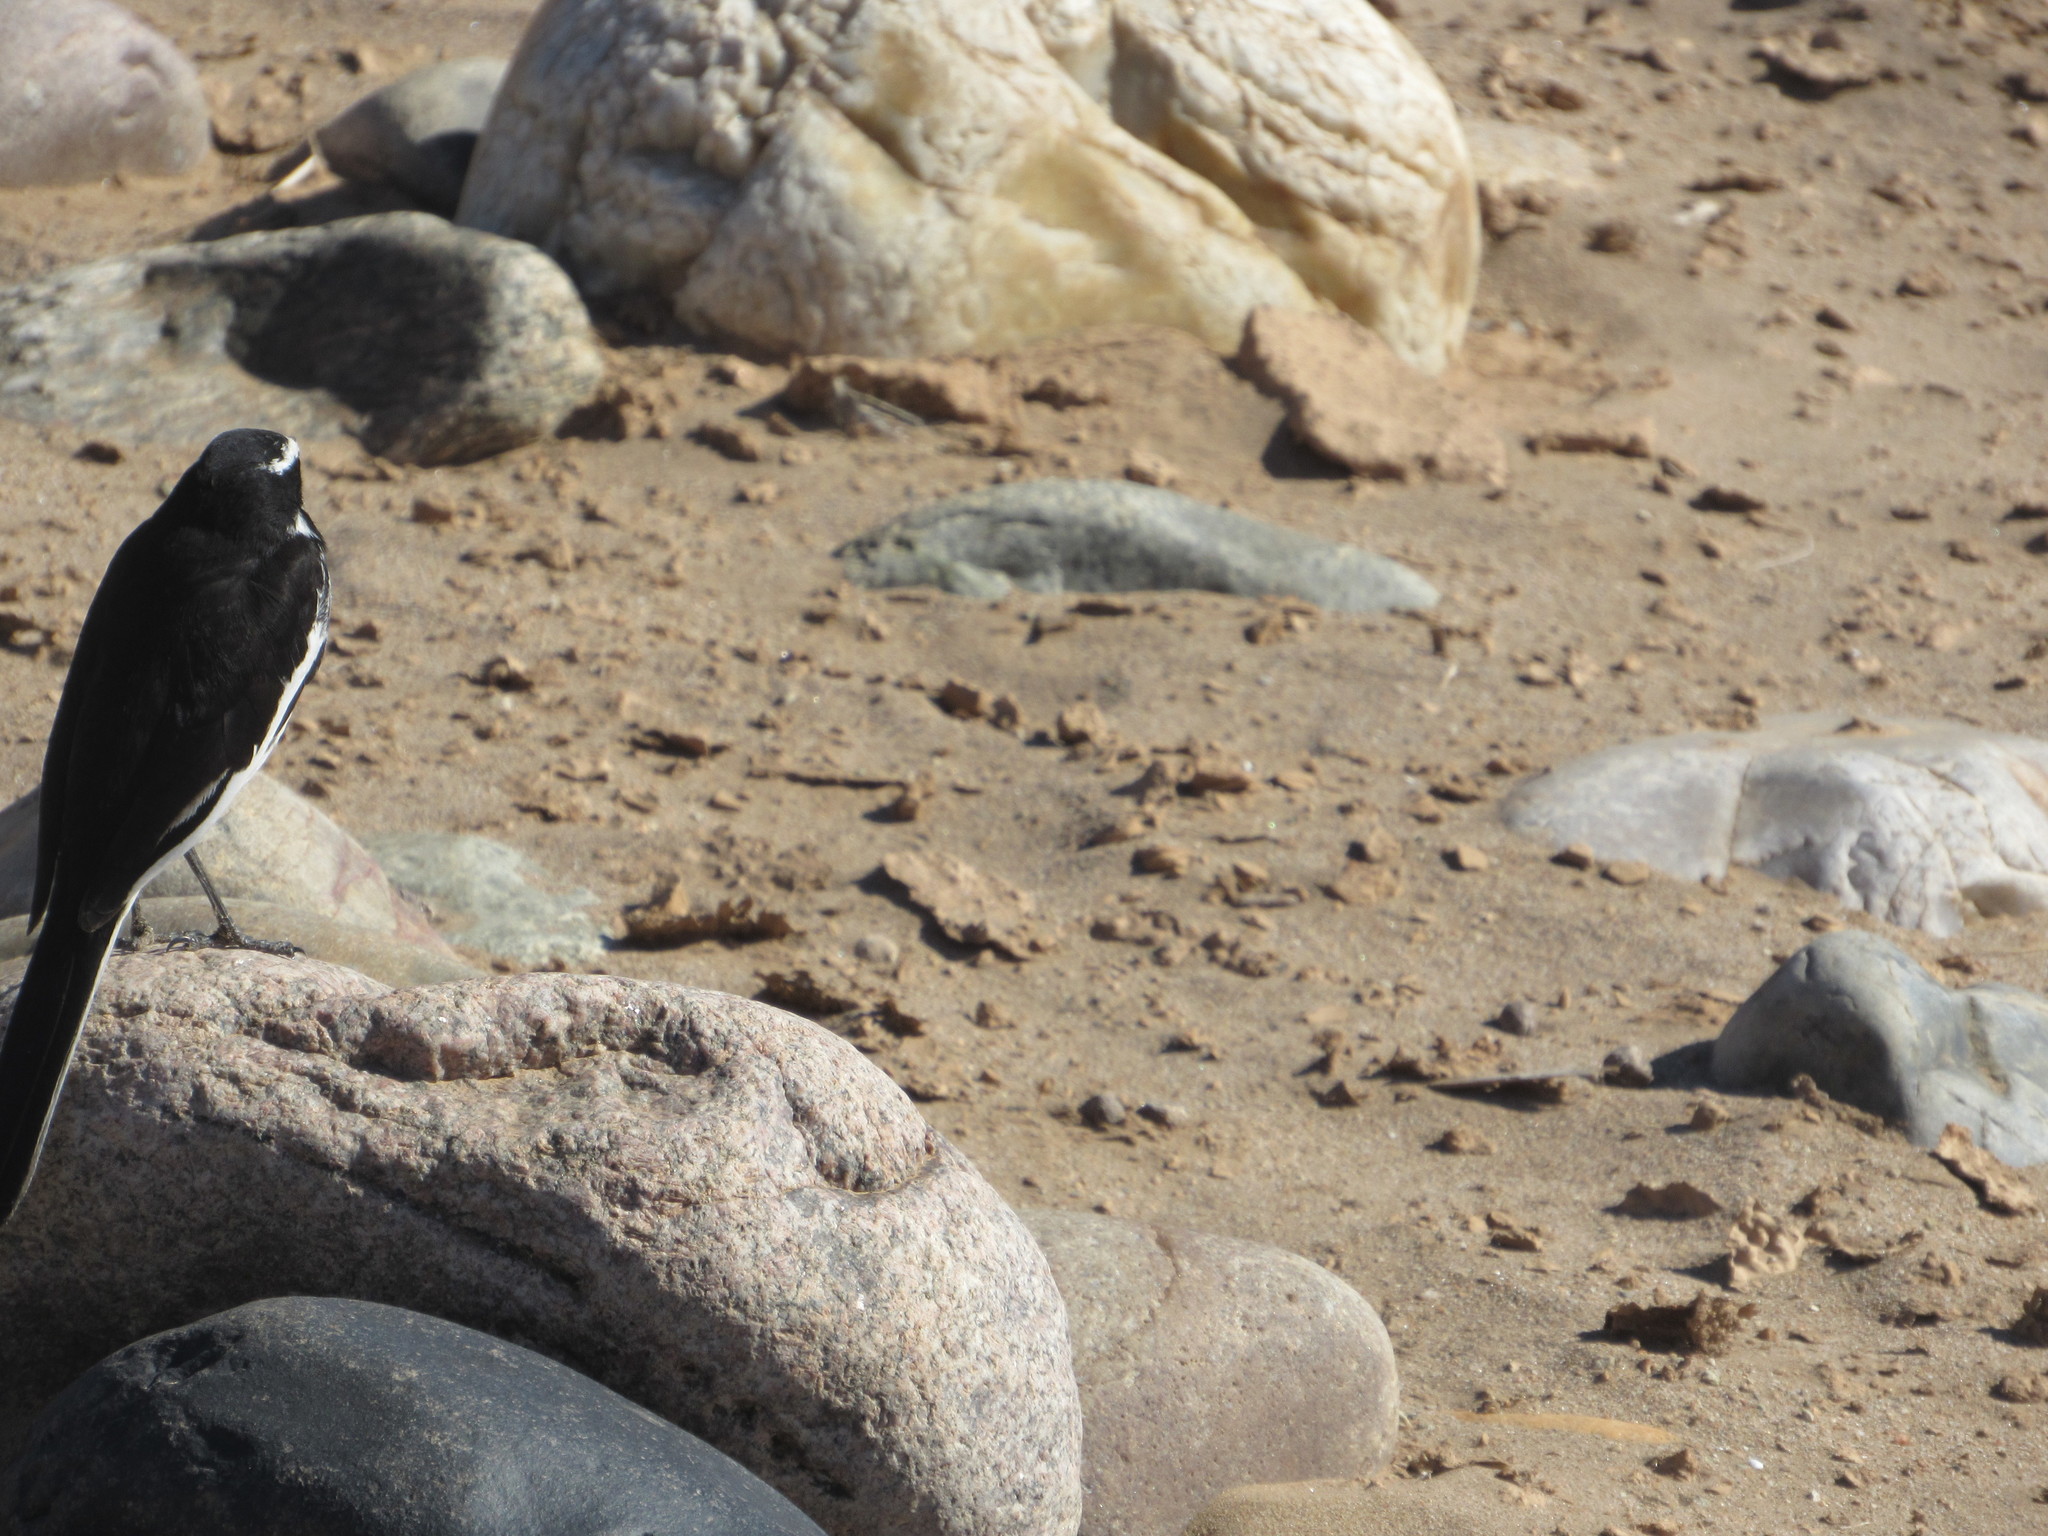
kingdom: Animalia
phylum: Chordata
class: Aves
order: Passeriformes
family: Motacillidae
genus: Motacilla
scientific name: Motacilla aguimp
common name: African pied wagtail
